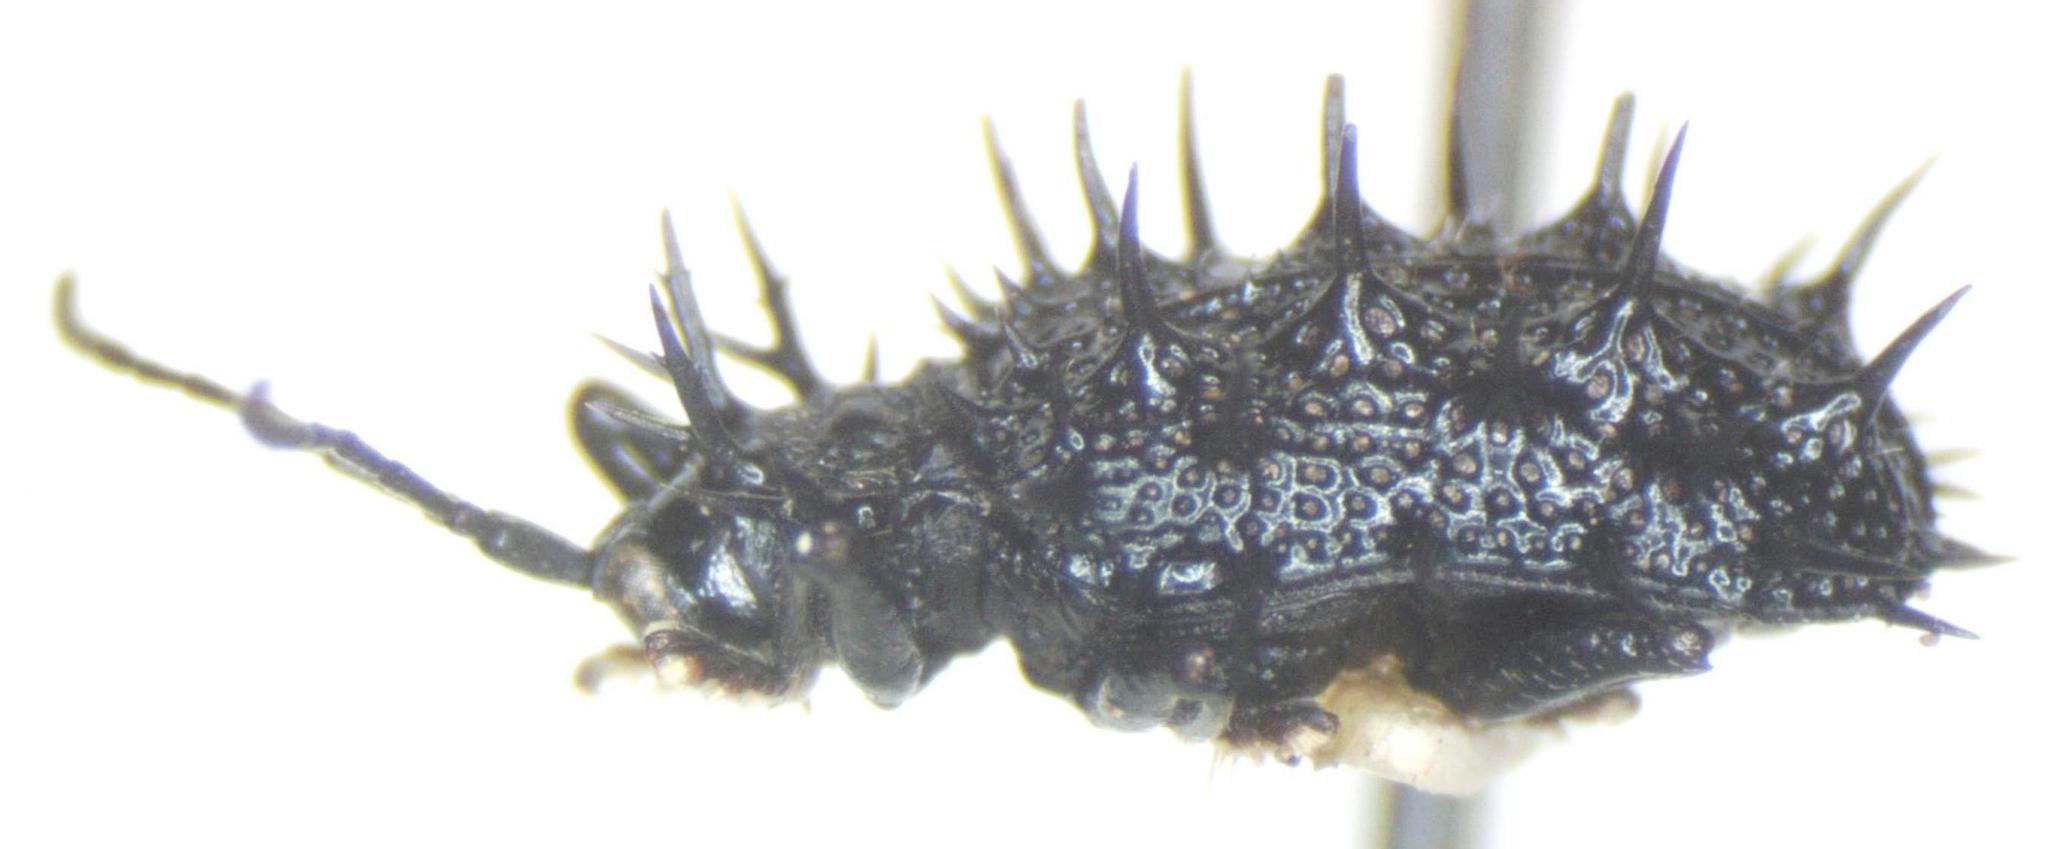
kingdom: Animalia
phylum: Arthropoda
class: Insecta
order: Coleoptera
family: Chrysomelidae
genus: Dactylispa
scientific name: Dactylispa spinipes
